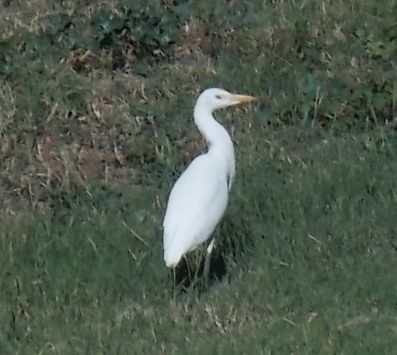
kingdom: Animalia
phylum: Chordata
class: Aves
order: Pelecaniformes
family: Ardeidae
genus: Bubulcus
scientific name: Bubulcus ibis
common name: Cattle egret
